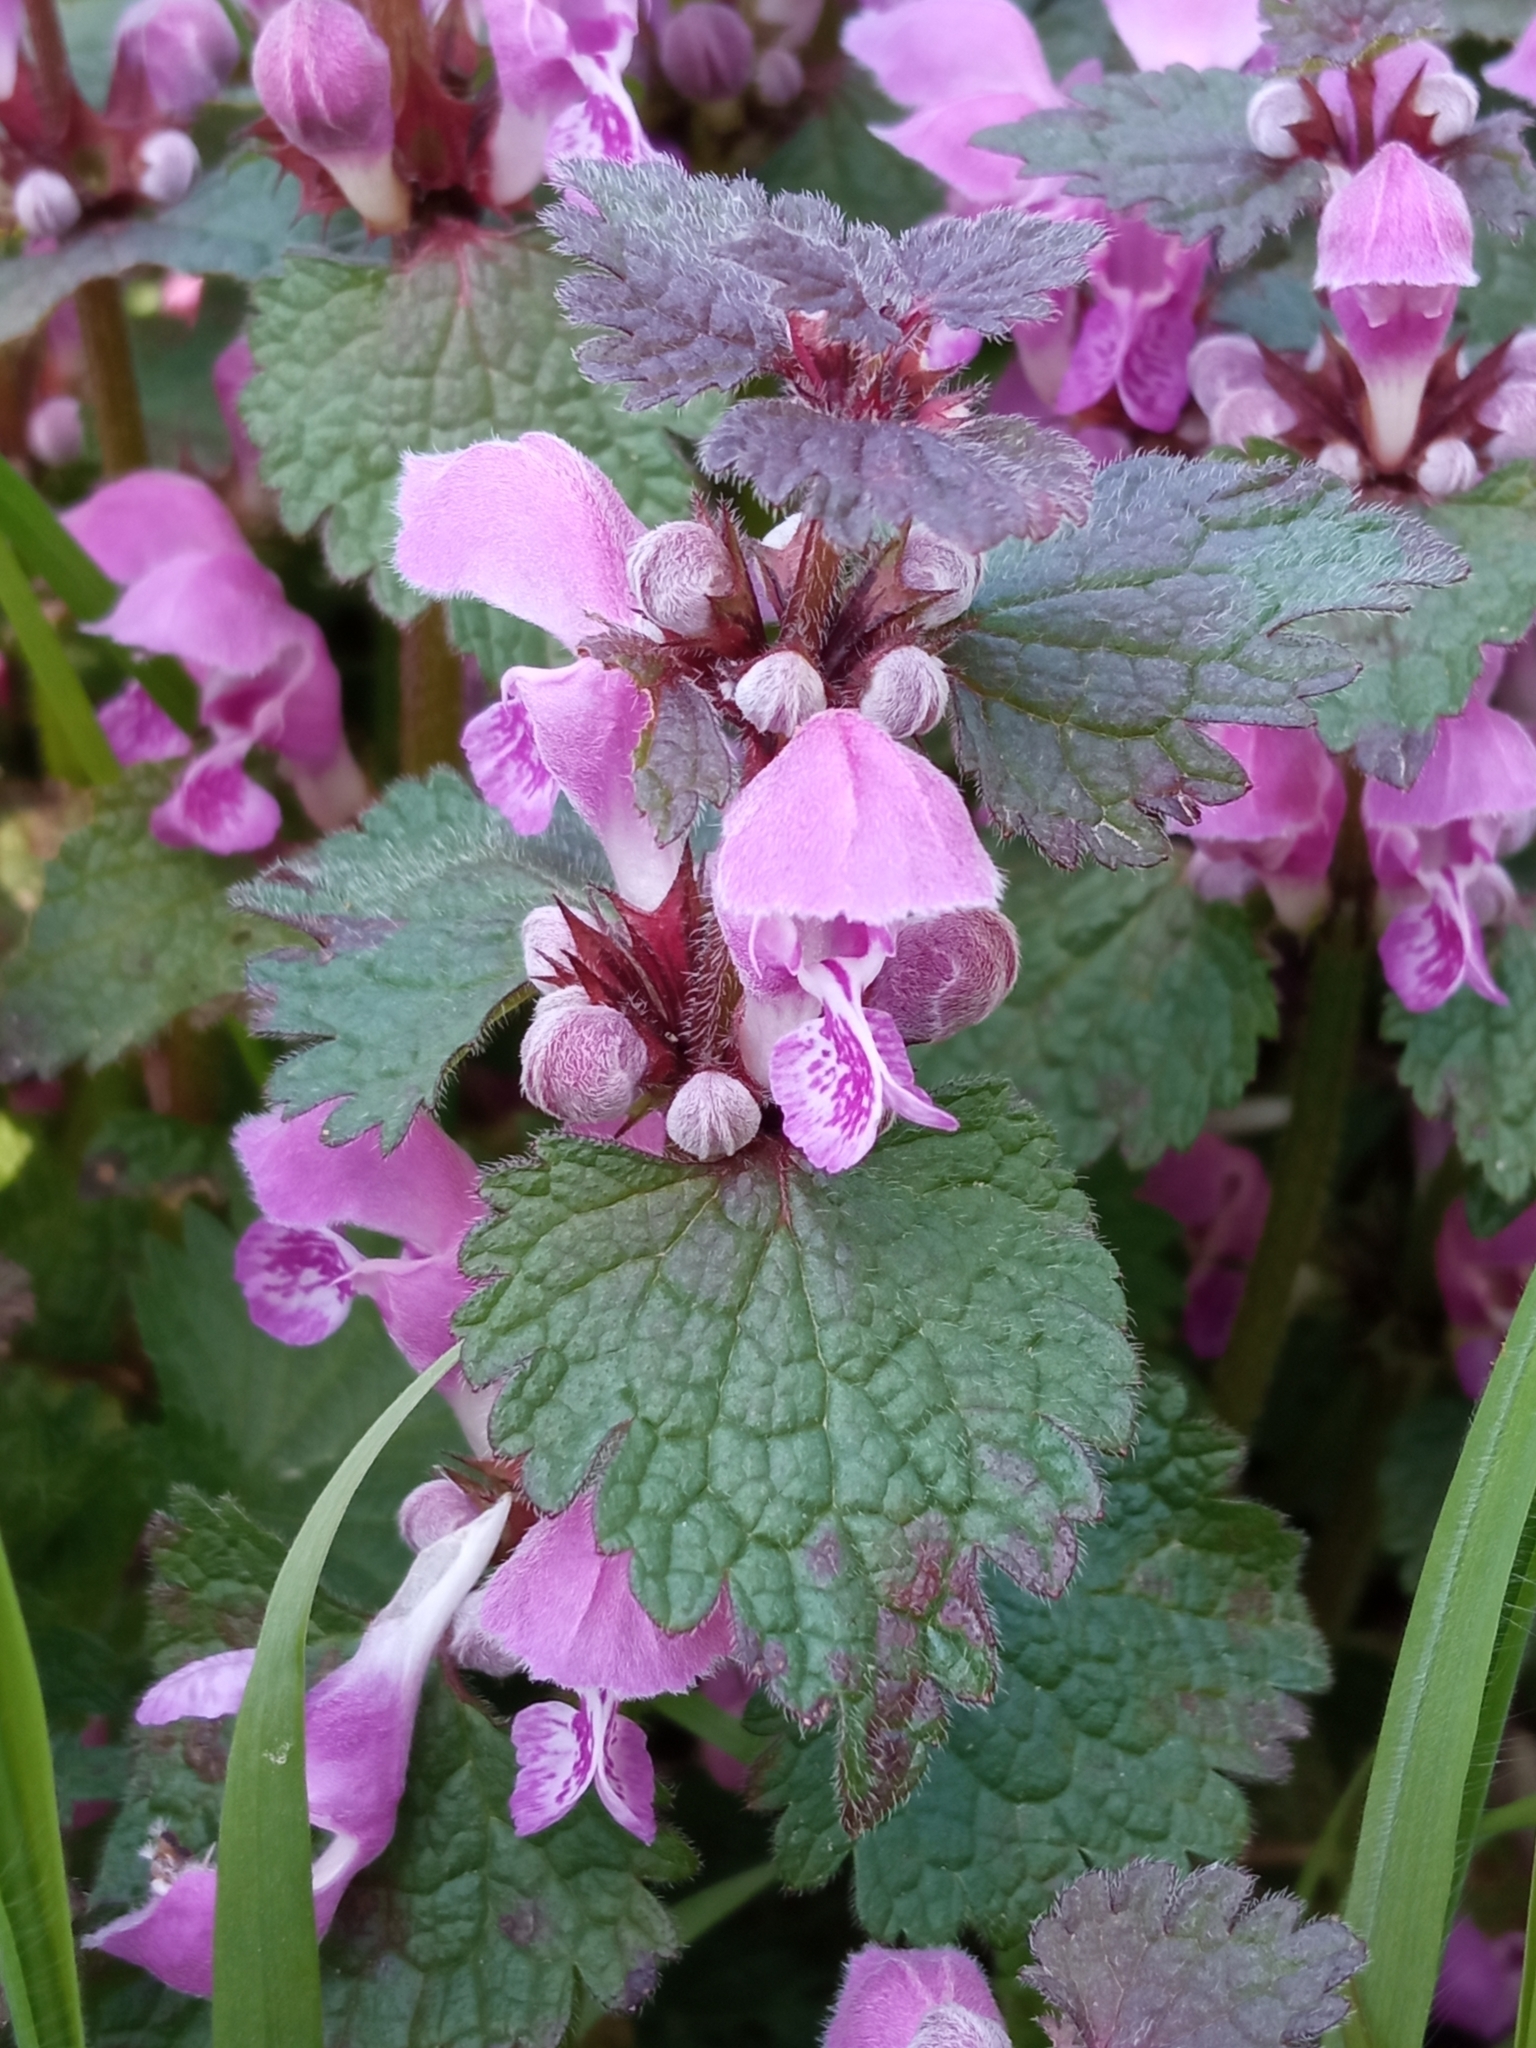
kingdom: Plantae
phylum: Tracheophyta
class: Magnoliopsida
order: Lamiales
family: Lamiaceae
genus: Lamium
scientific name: Lamium maculatum
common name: Spotted dead-nettle
